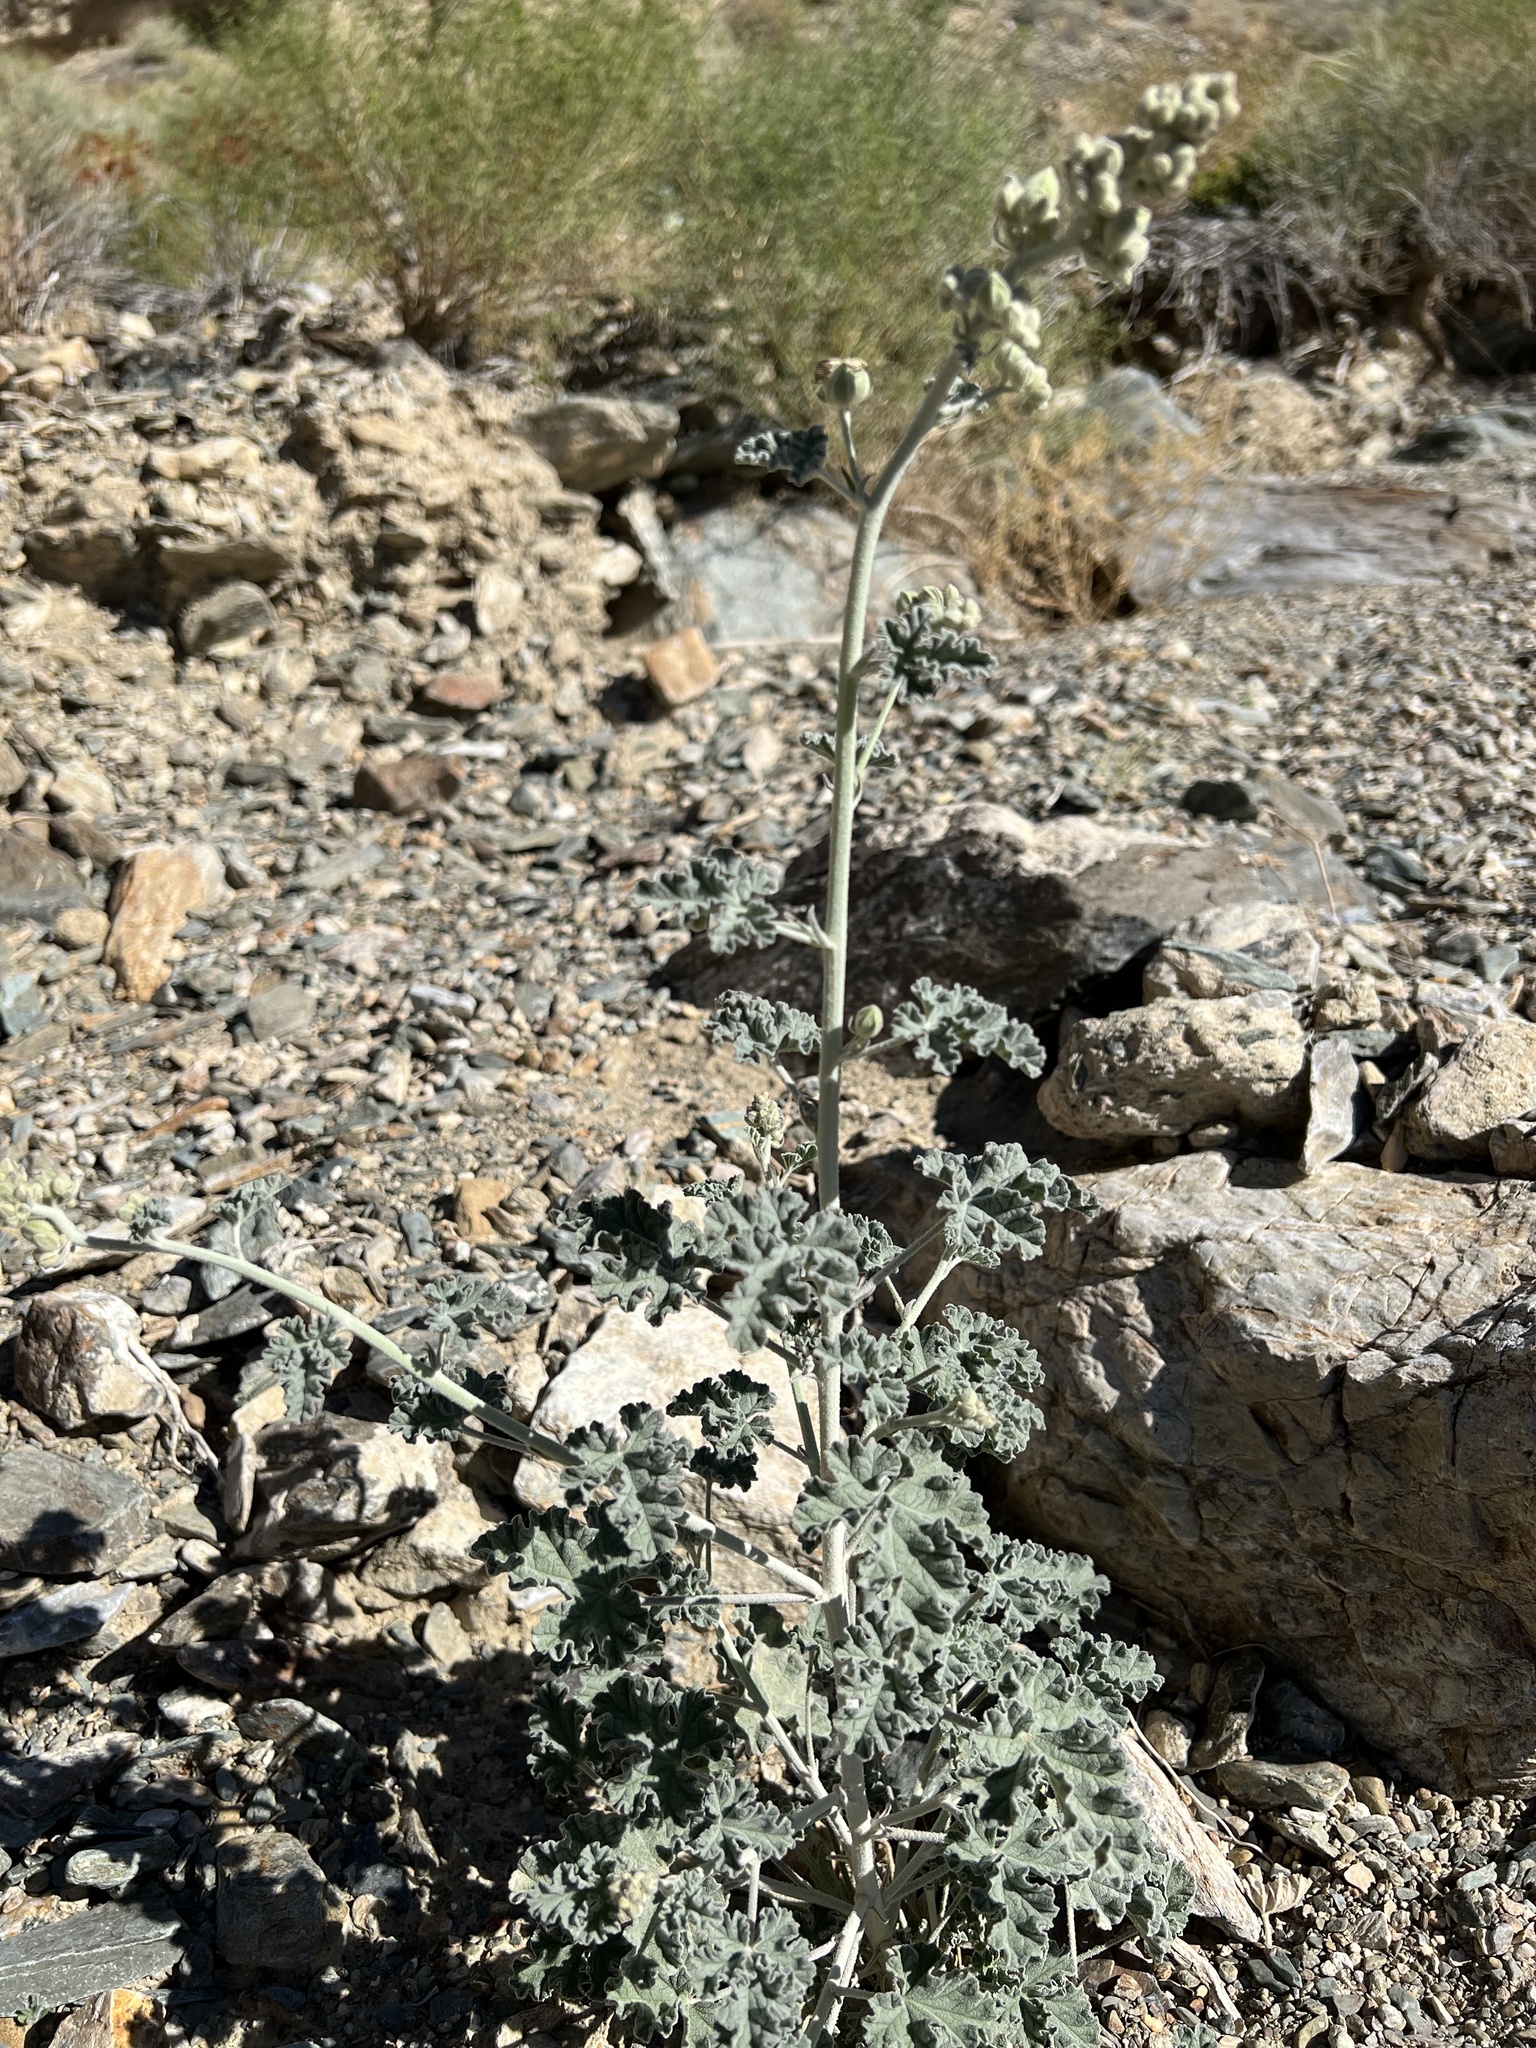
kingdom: Plantae
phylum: Tracheophyta
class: Magnoliopsida
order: Malvales
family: Malvaceae
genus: Sphaeralcea
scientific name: Sphaeralcea ambigua
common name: Apricot globe-mallow
